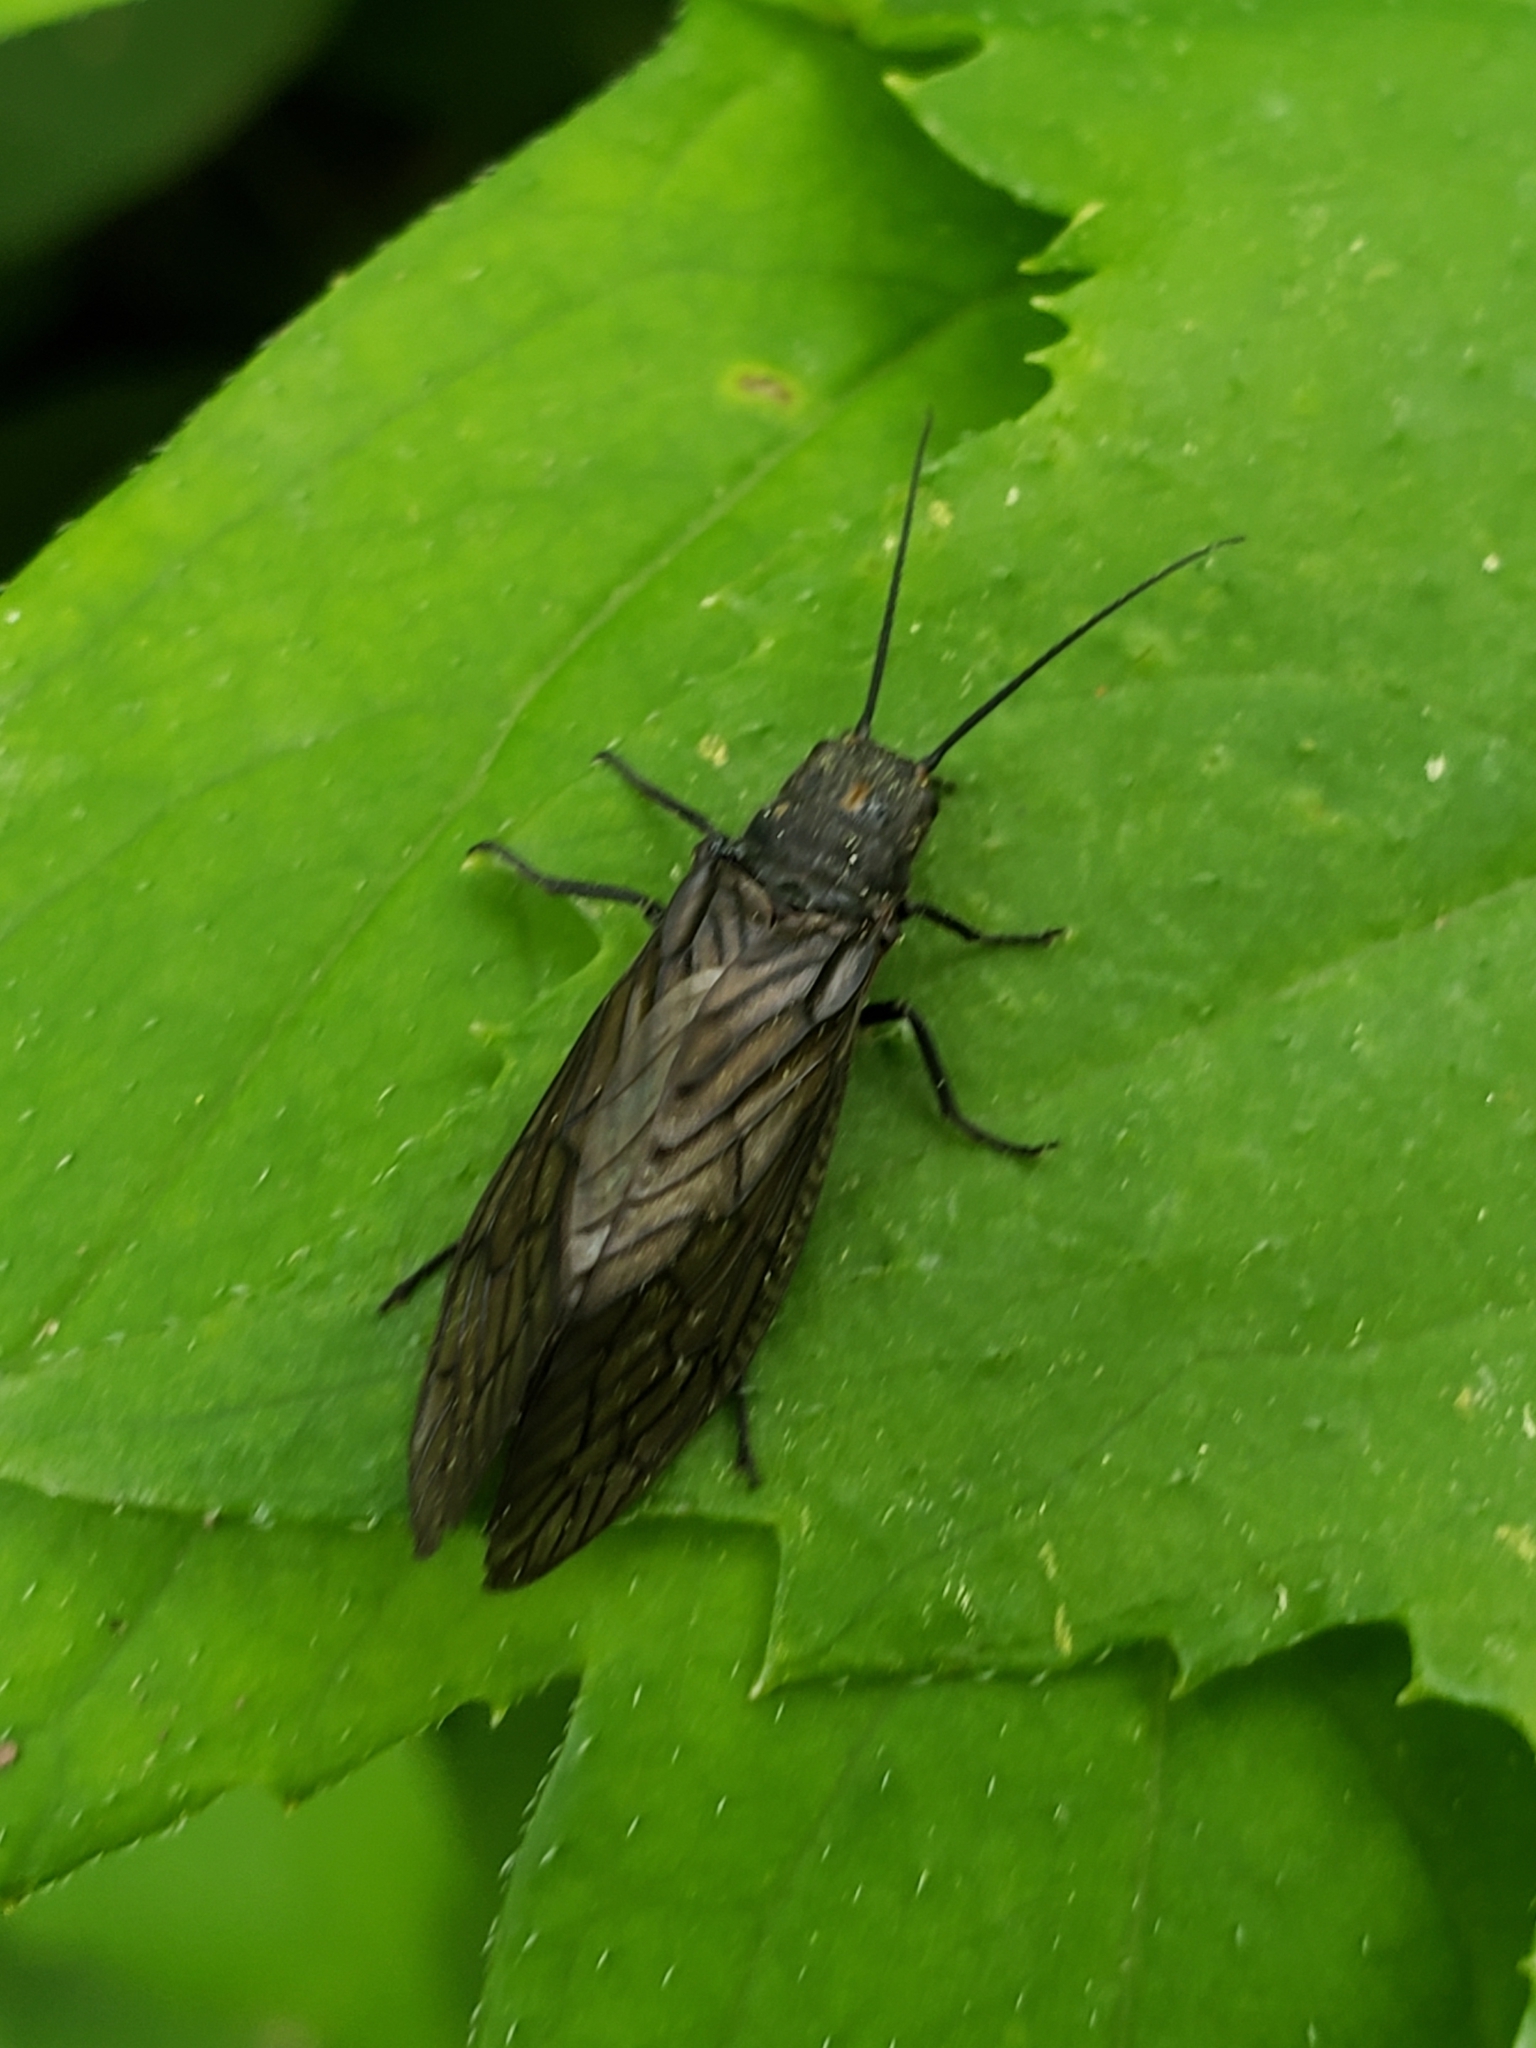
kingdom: Animalia
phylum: Arthropoda
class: Insecta
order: Megaloptera
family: Sialidae
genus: Sialis
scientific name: Sialis
